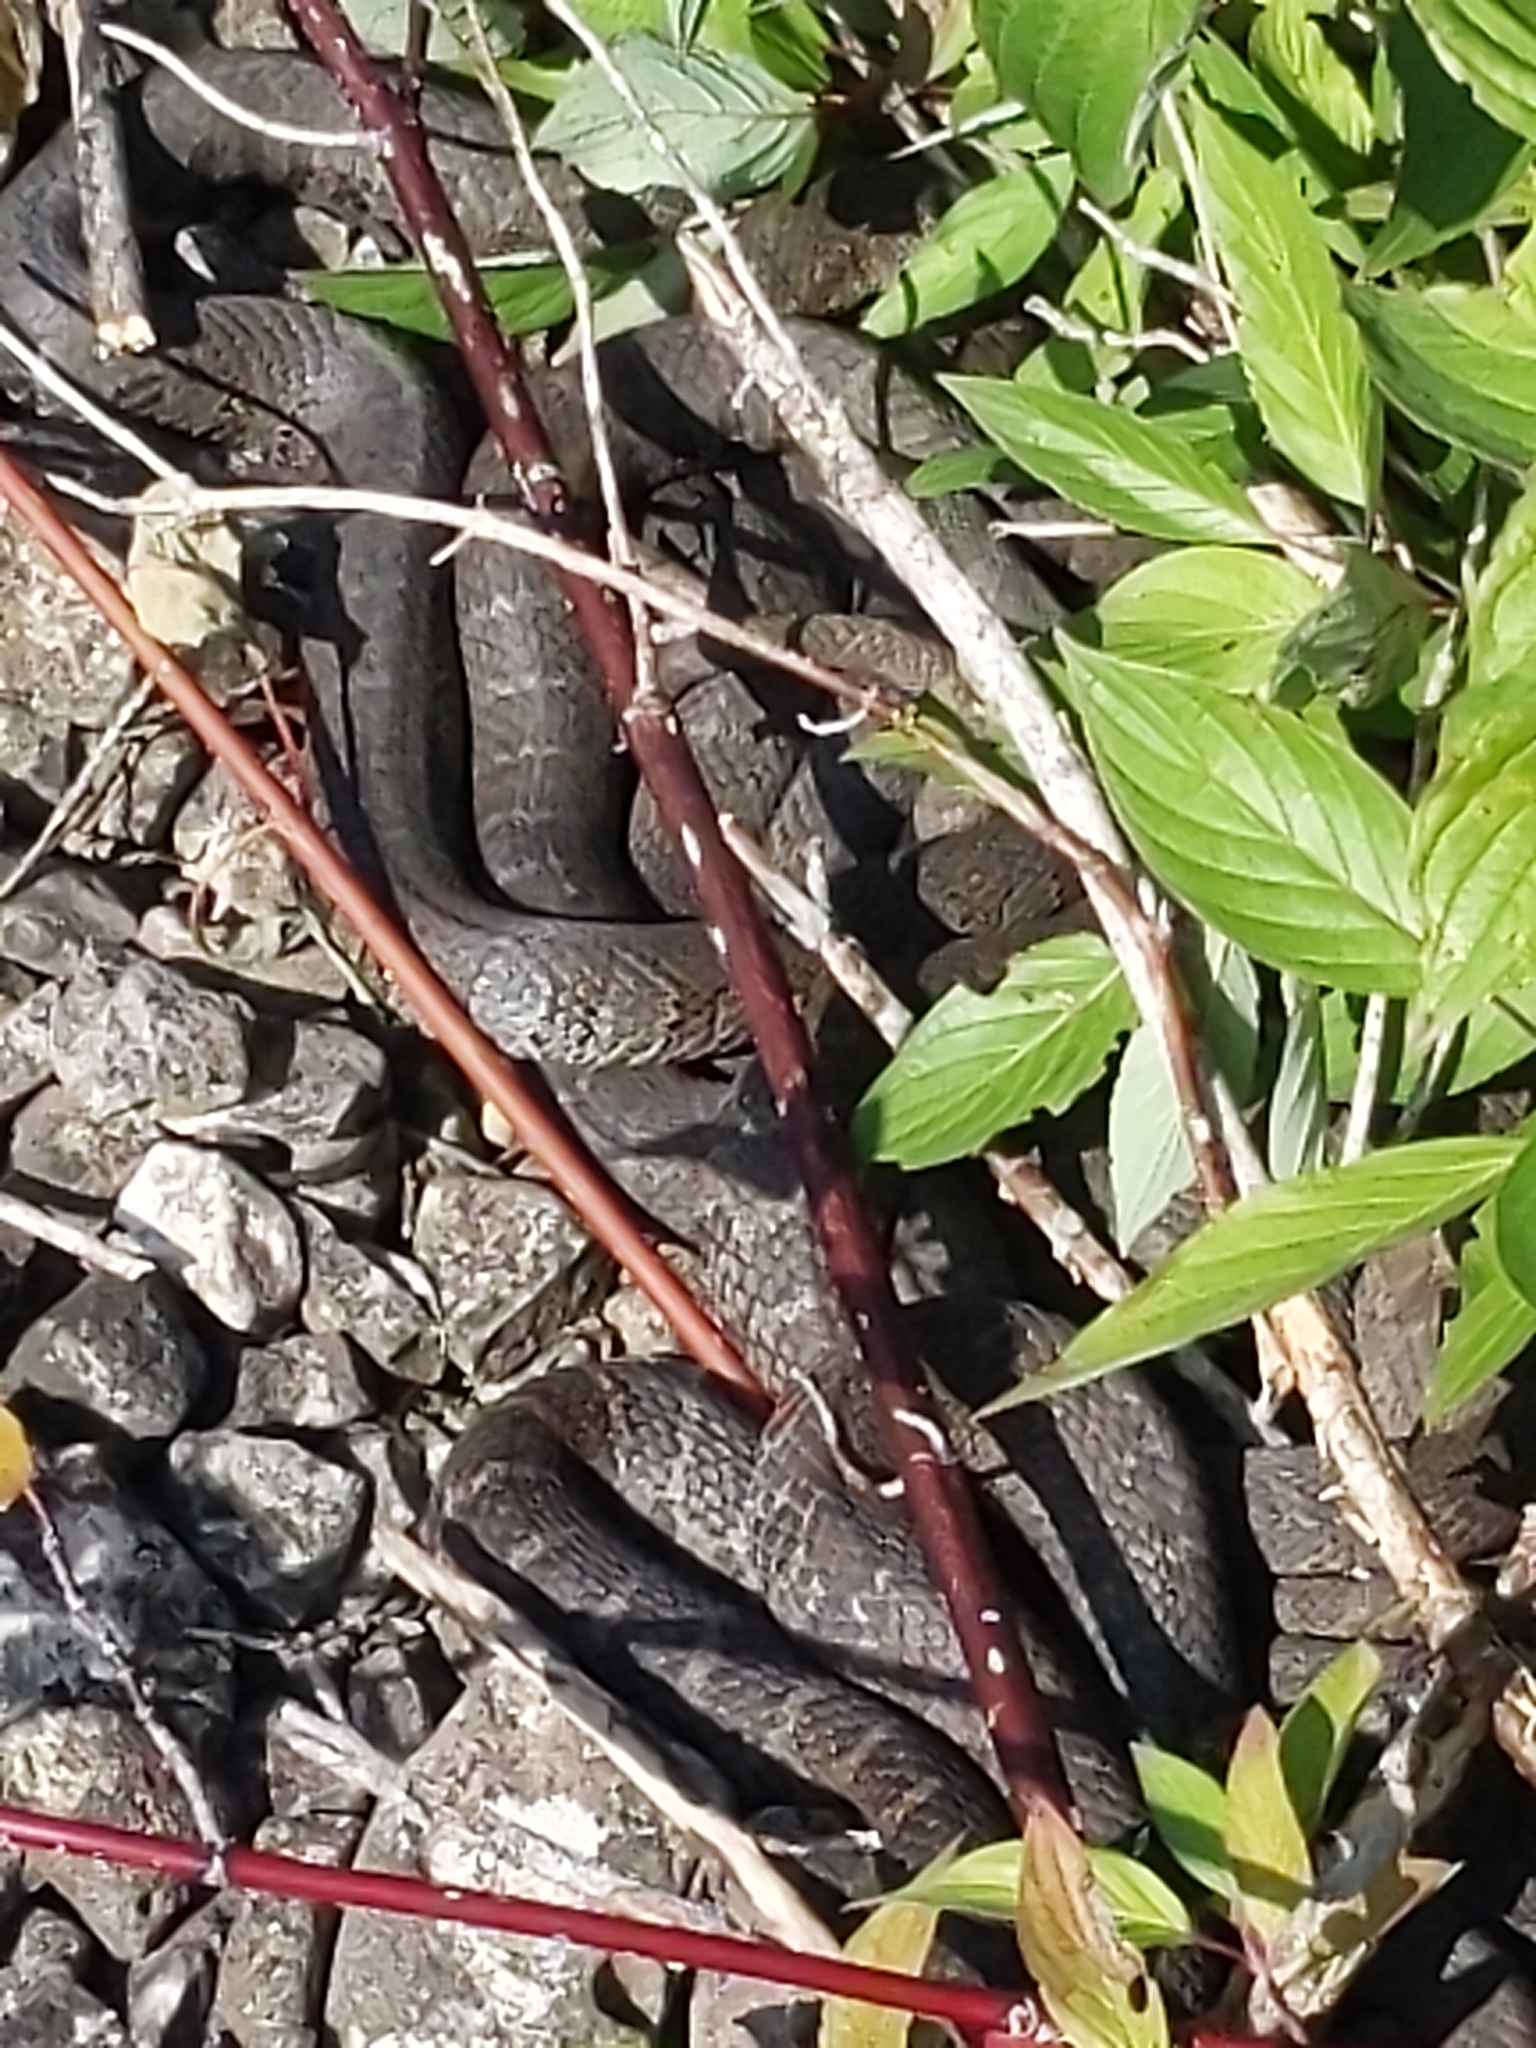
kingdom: Animalia
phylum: Chordata
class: Squamata
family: Colubridae
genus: Nerodia
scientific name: Nerodia sipedon
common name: Northern water snake
